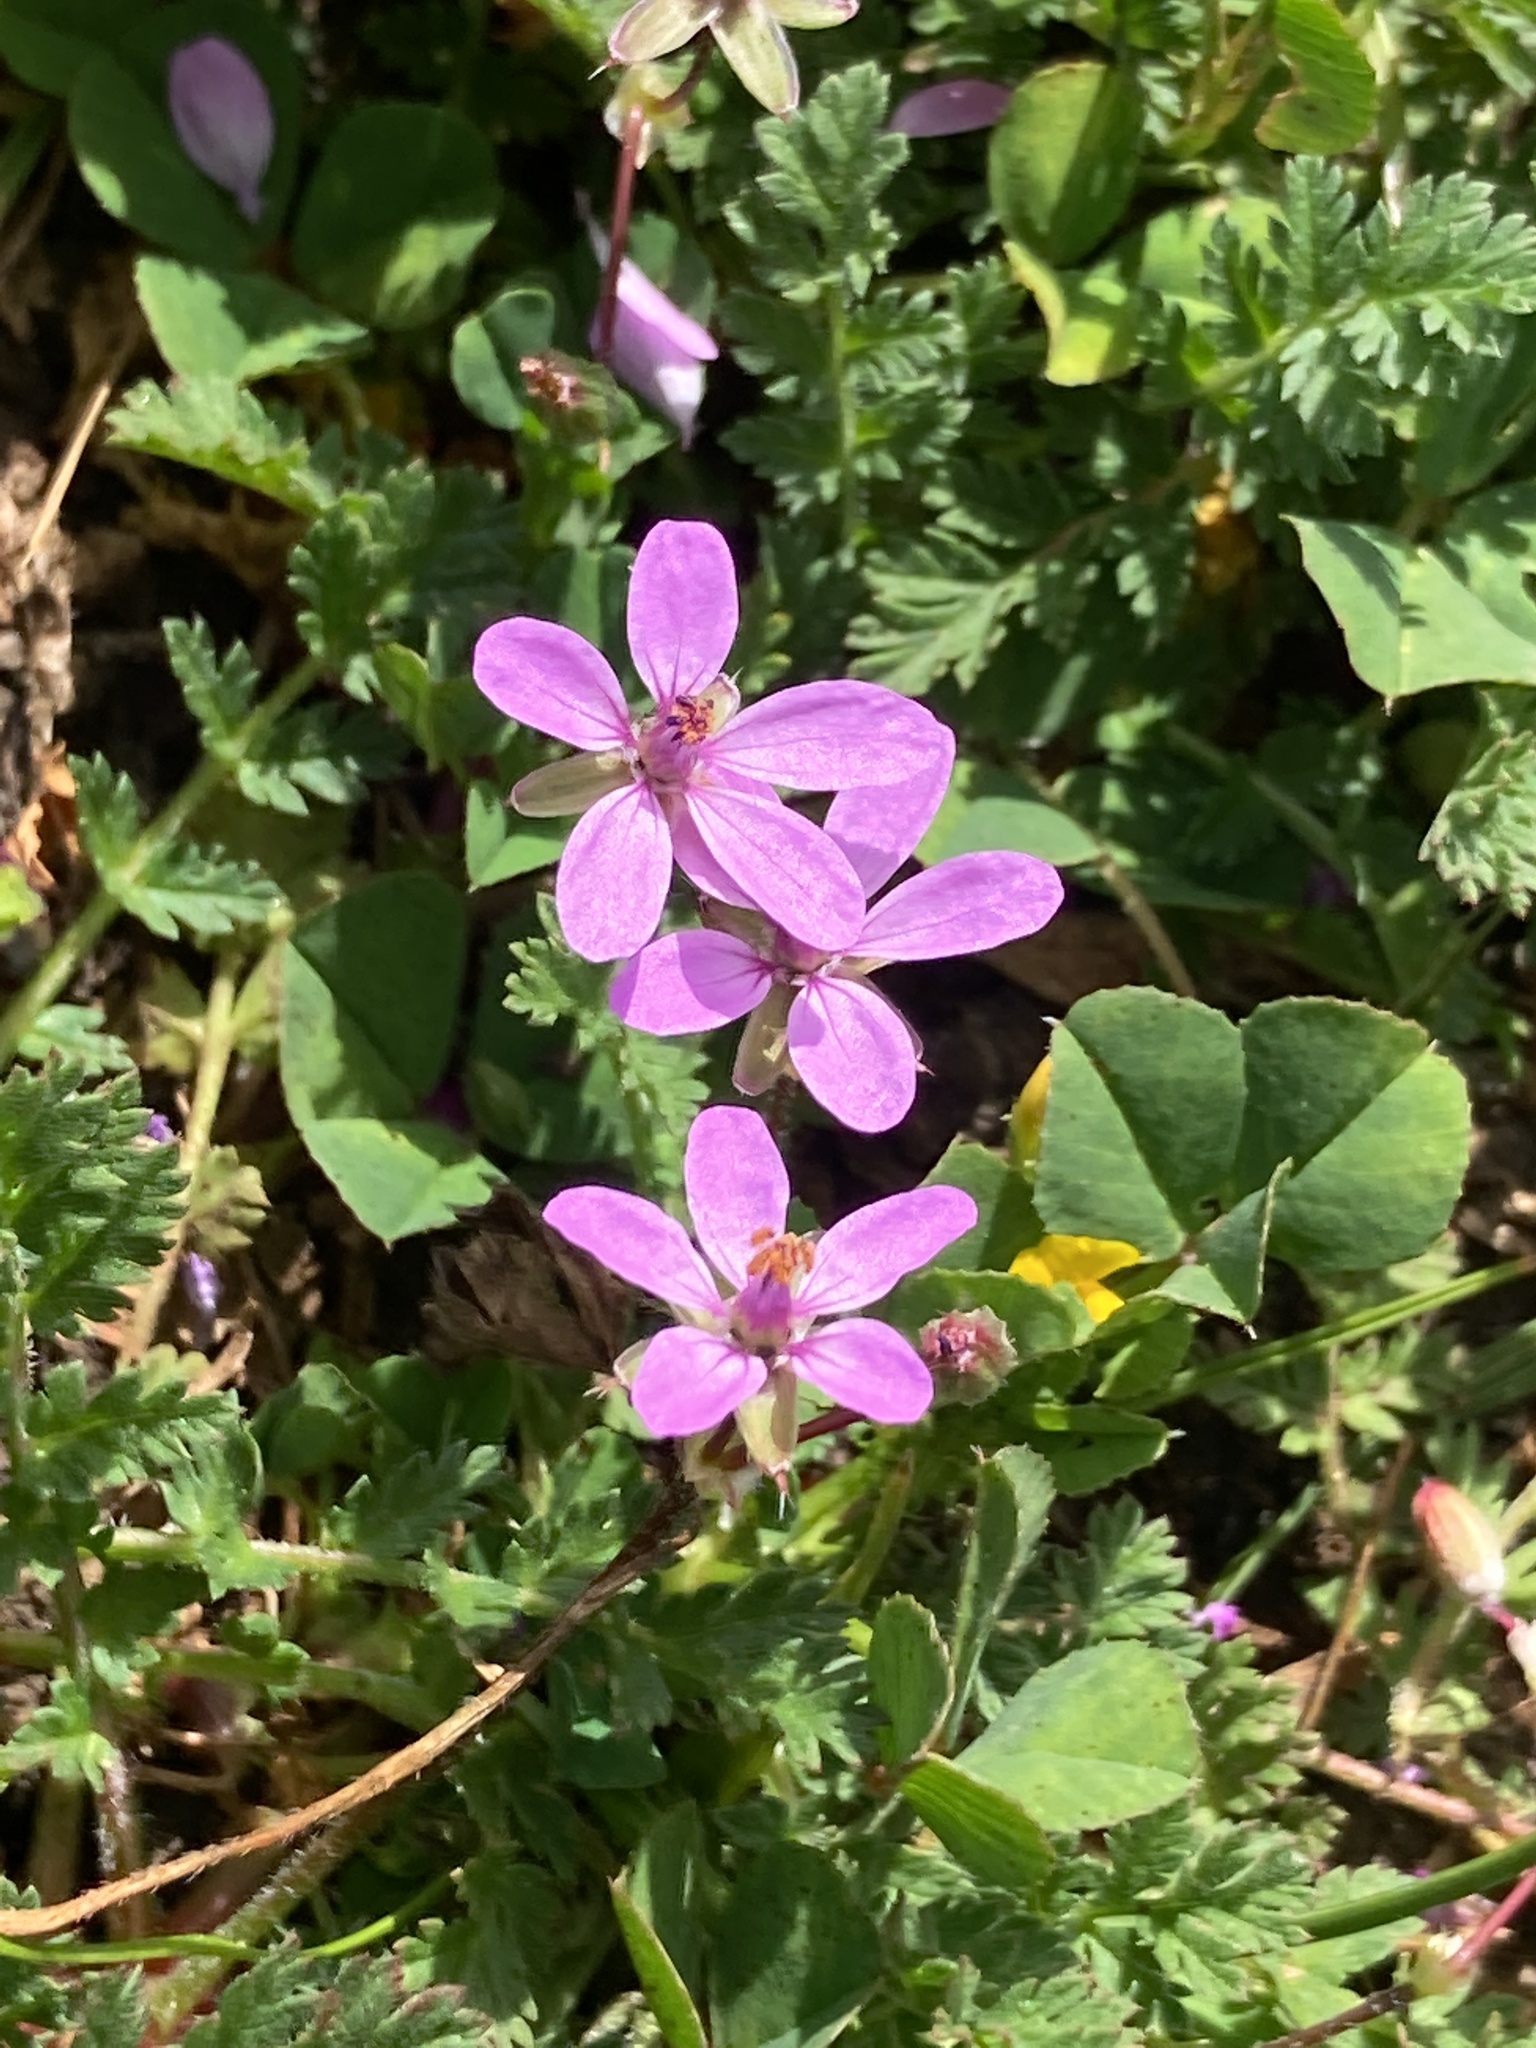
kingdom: Plantae
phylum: Tracheophyta
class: Magnoliopsida
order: Geraniales
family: Geraniaceae
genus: Erodium
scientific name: Erodium cicutarium
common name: Common stork's-bill
